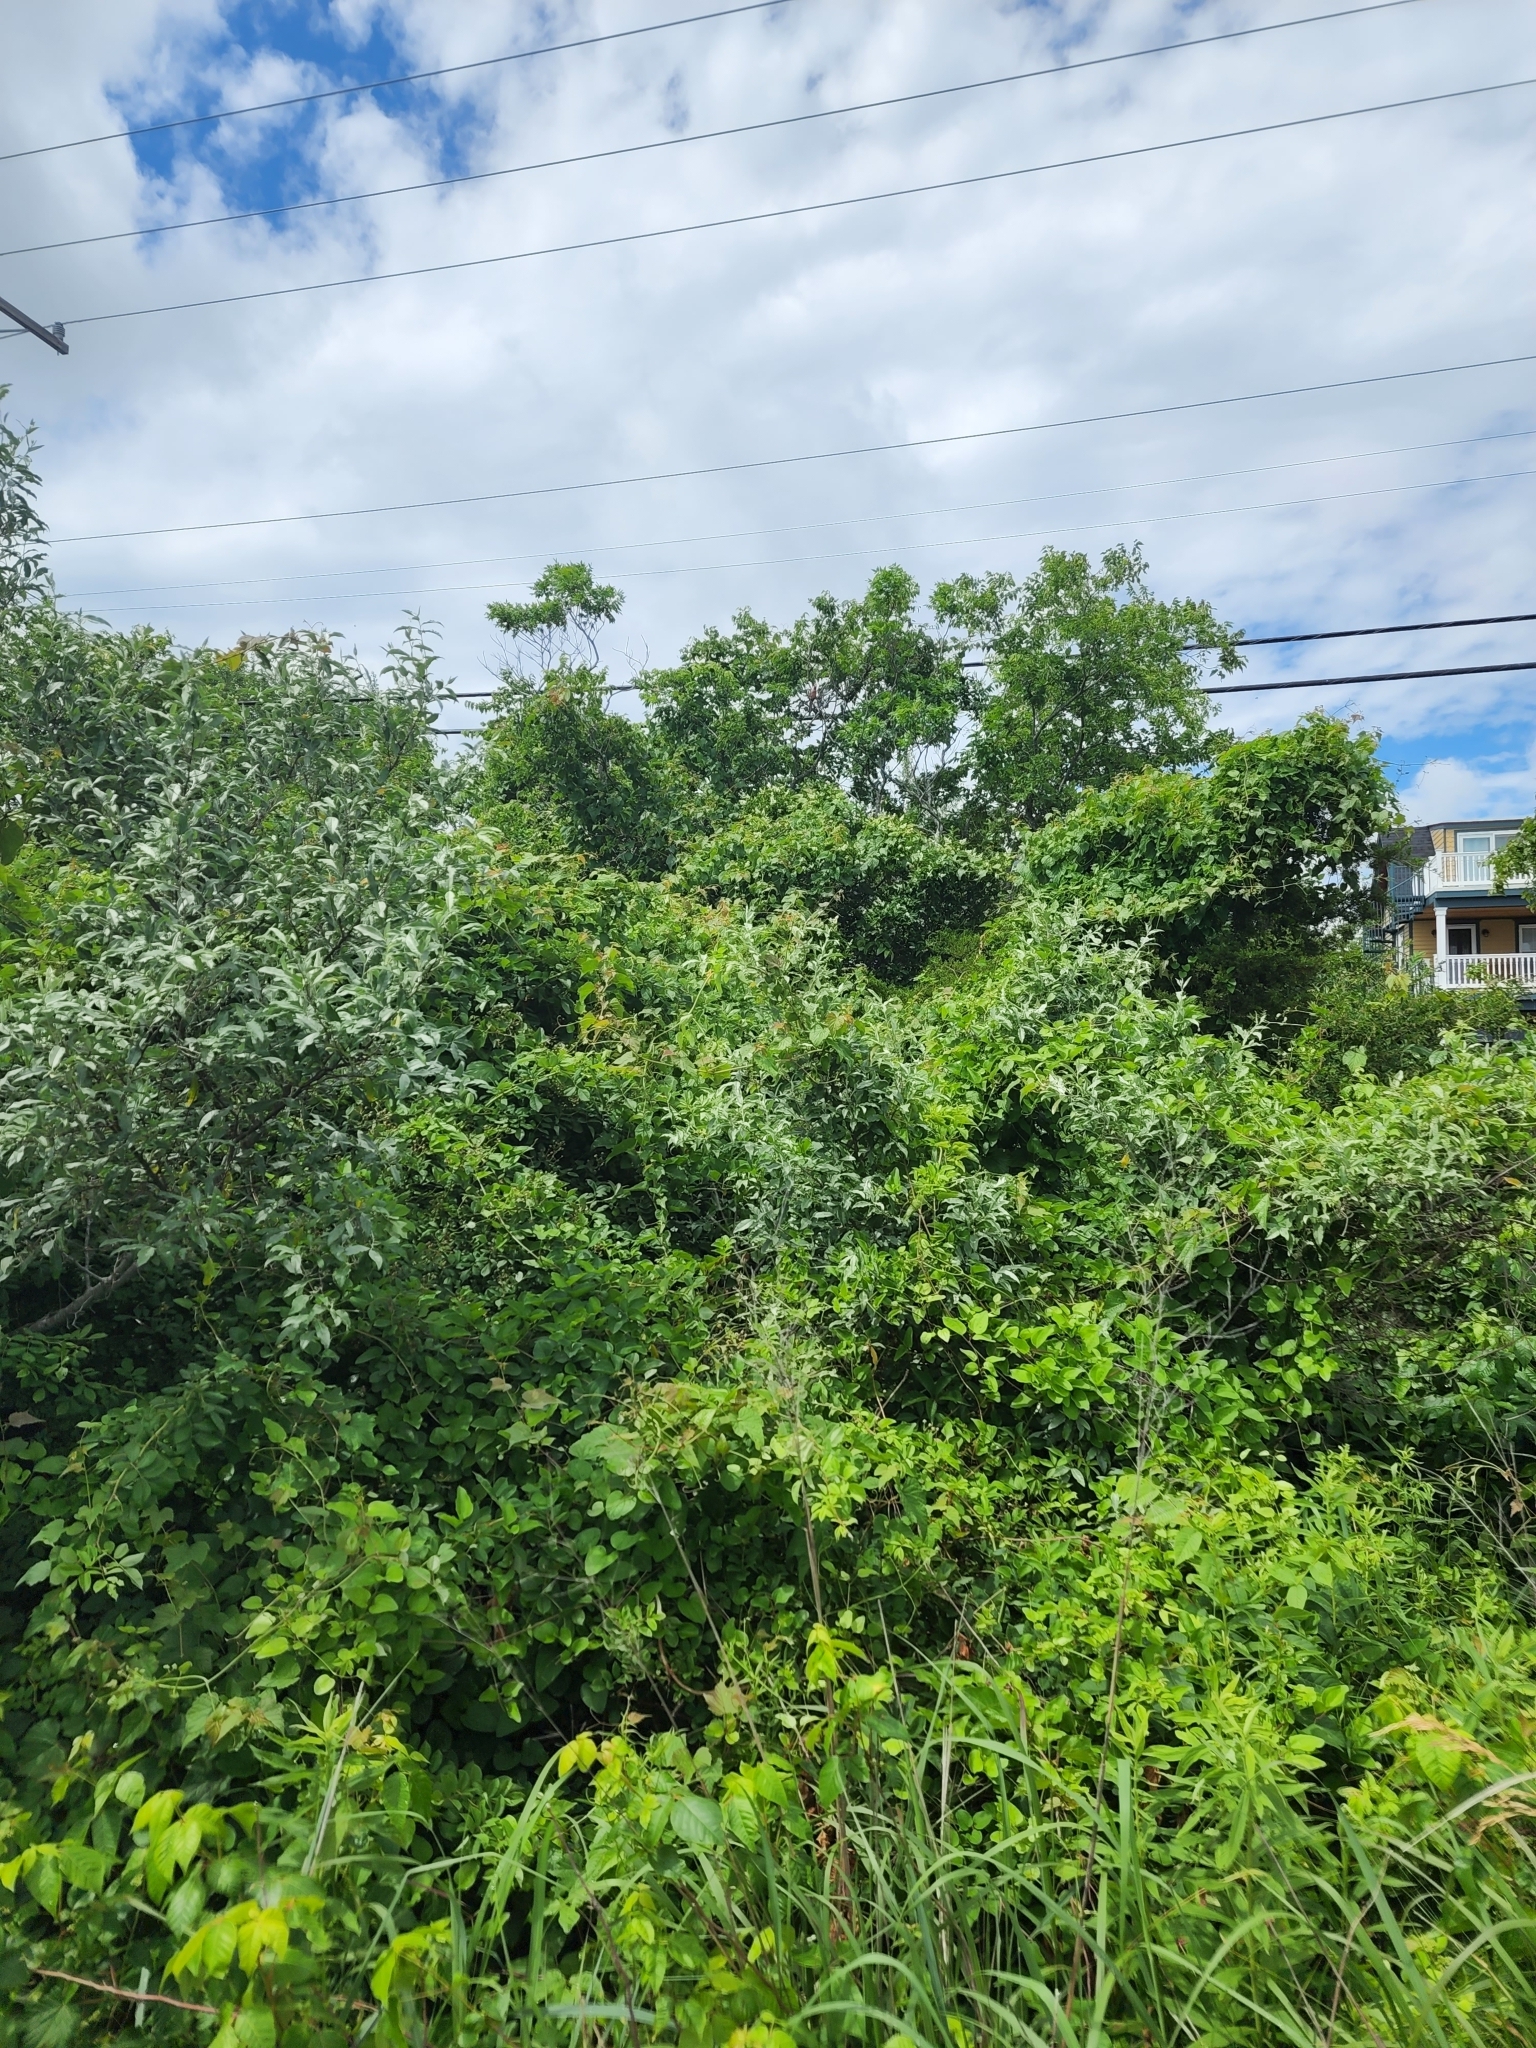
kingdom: Animalia
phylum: Chordata
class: Aves
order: Passeriformes
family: Cardinalidae
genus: Cardinalis
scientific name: Cardinalis cardinalis
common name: Northern cardinal
